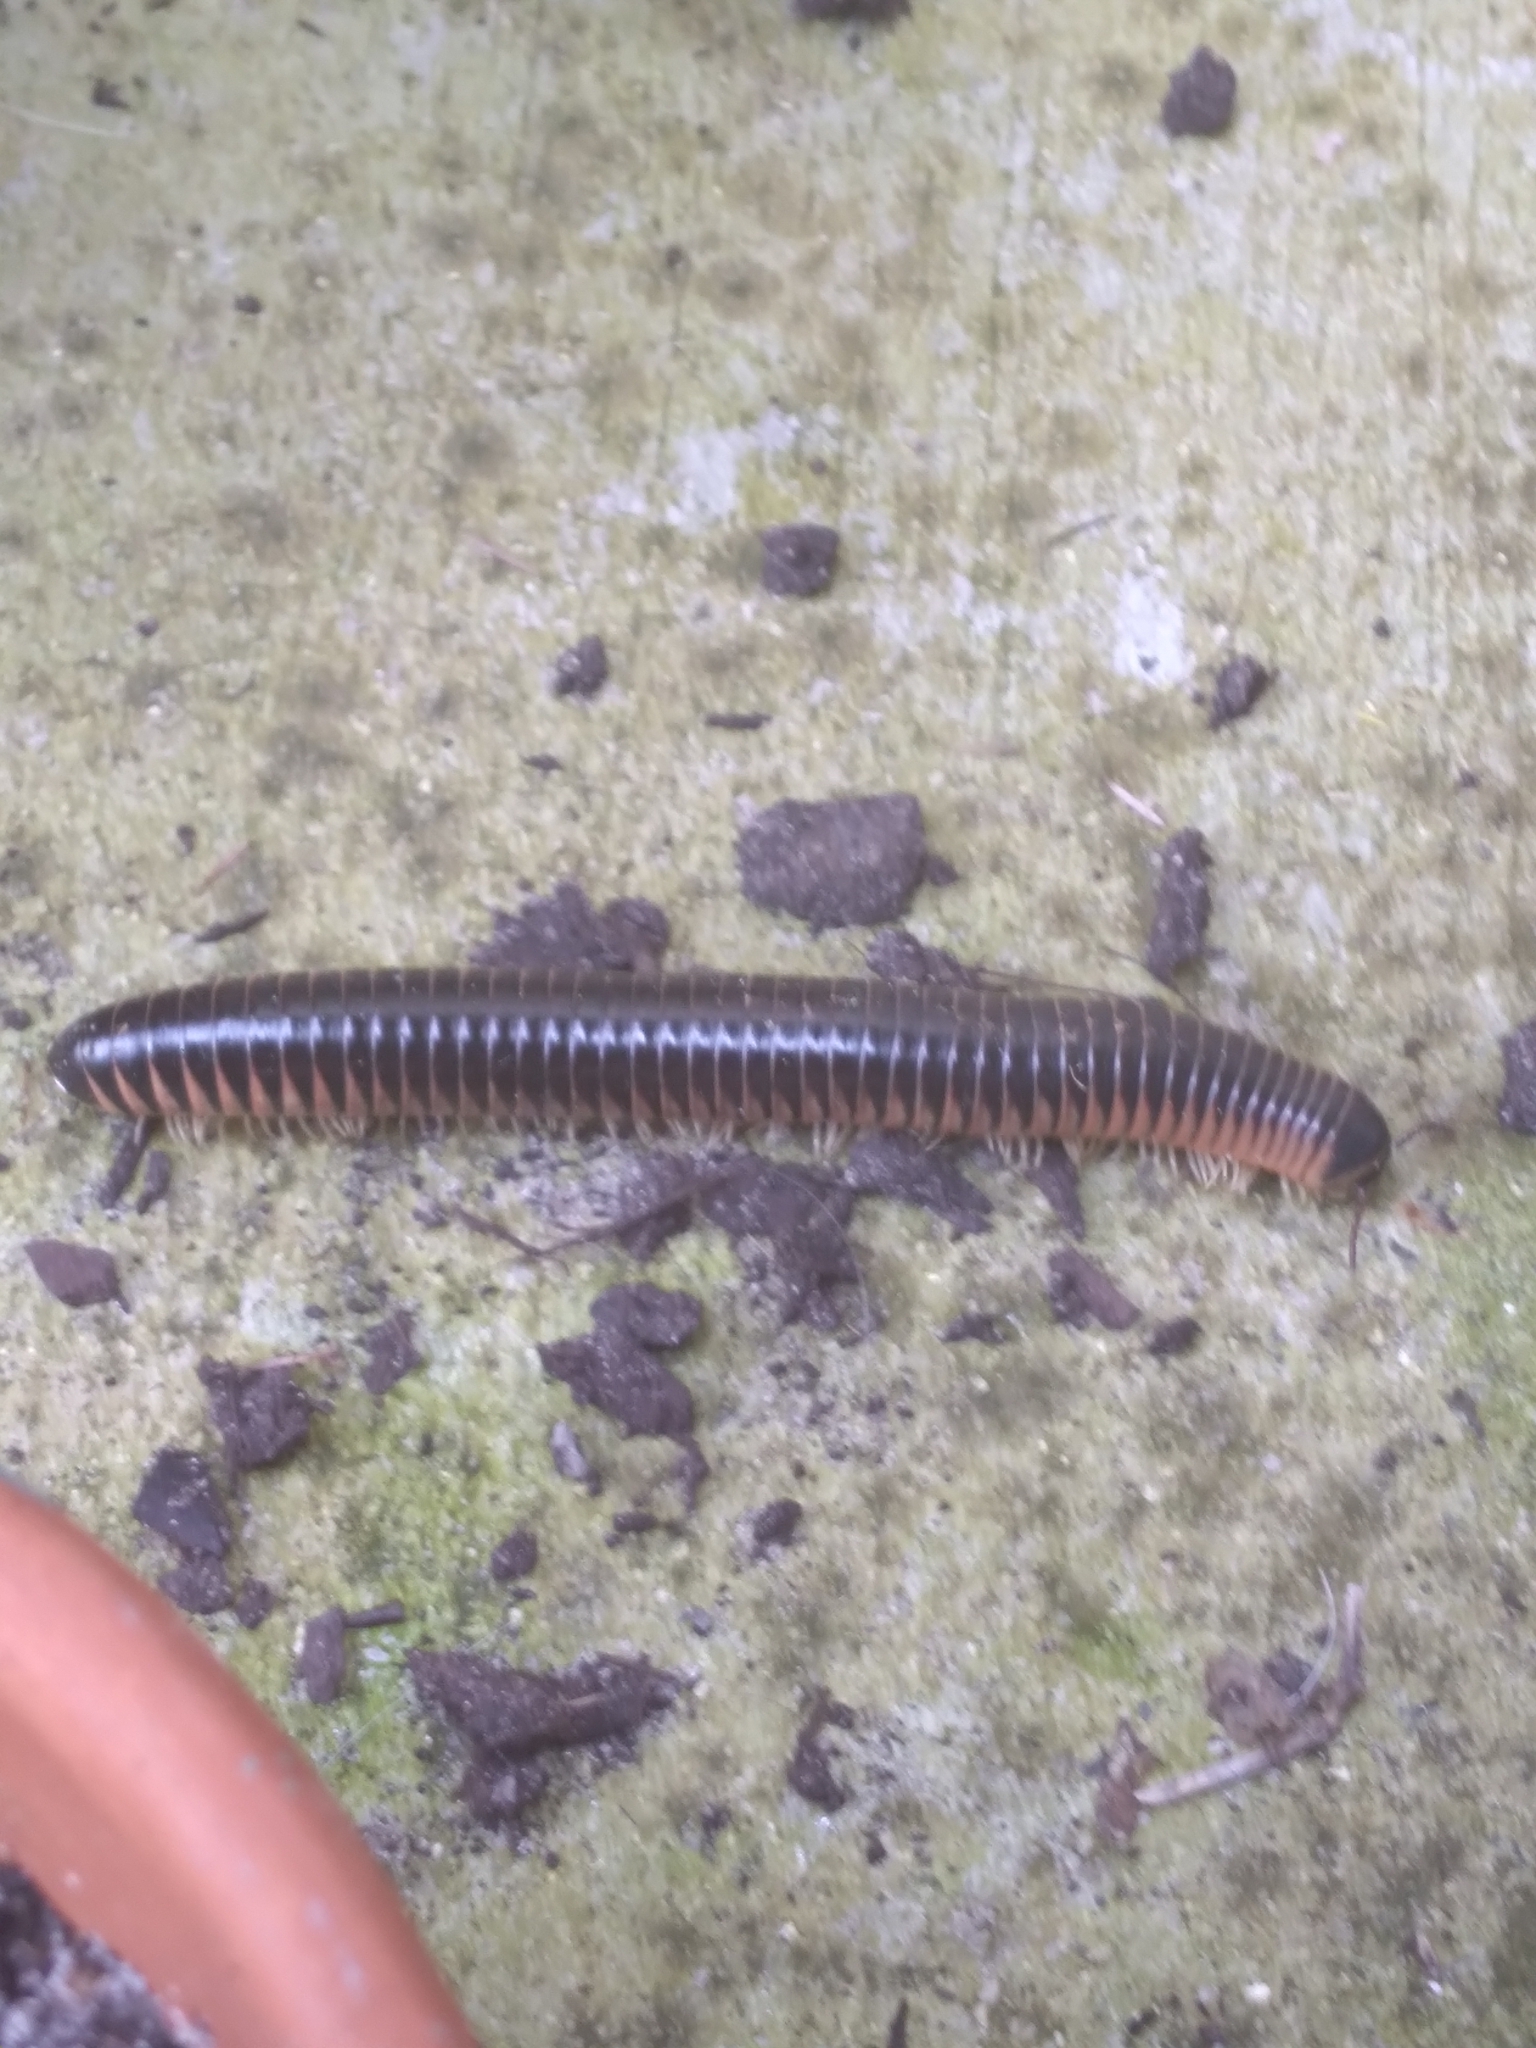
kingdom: Animalia
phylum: Arthropoda
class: Diplopoda
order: Spirobolida
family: Spirobolidae
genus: Chicobolus
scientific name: Chicobolus spinigerus
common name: Florida ivory millipede
